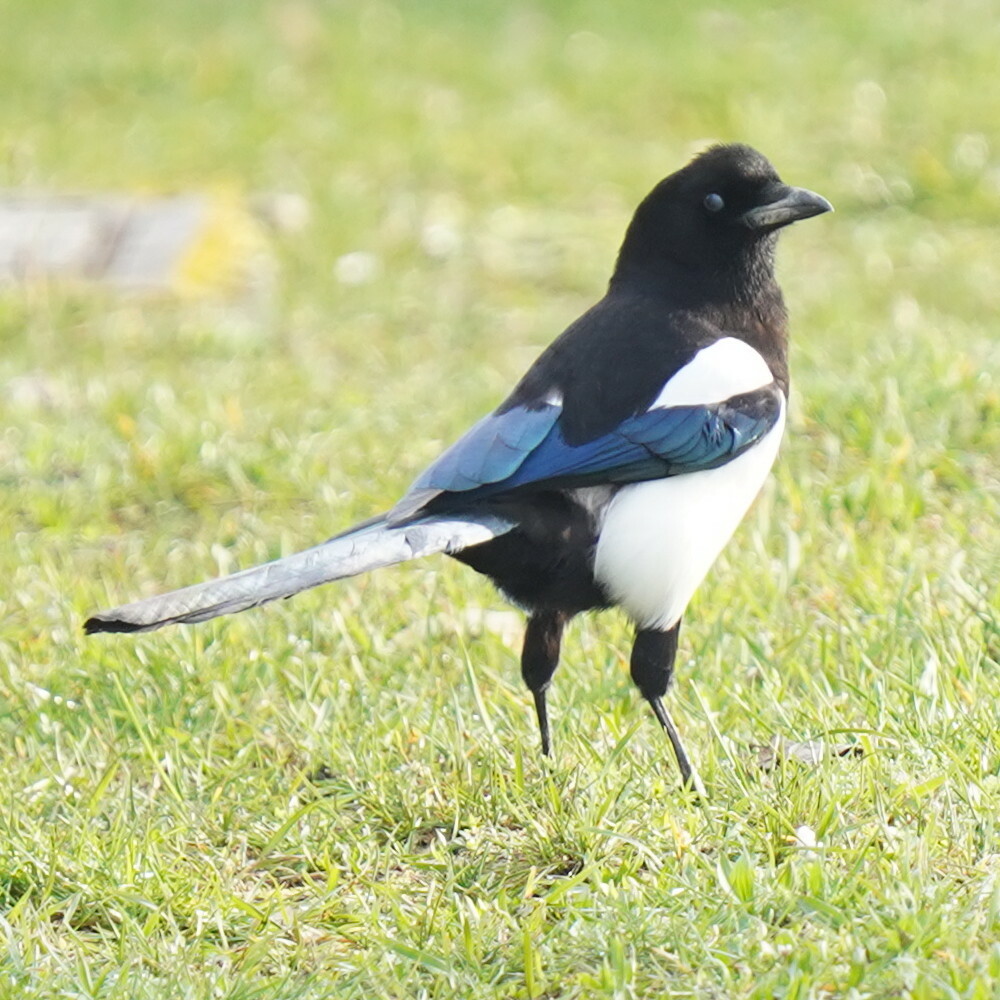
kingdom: Animalia
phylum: Chordata
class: Aves
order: Passeriformes
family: Corvidae
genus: Pica
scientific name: Pica pica
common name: Eurasian magpie
